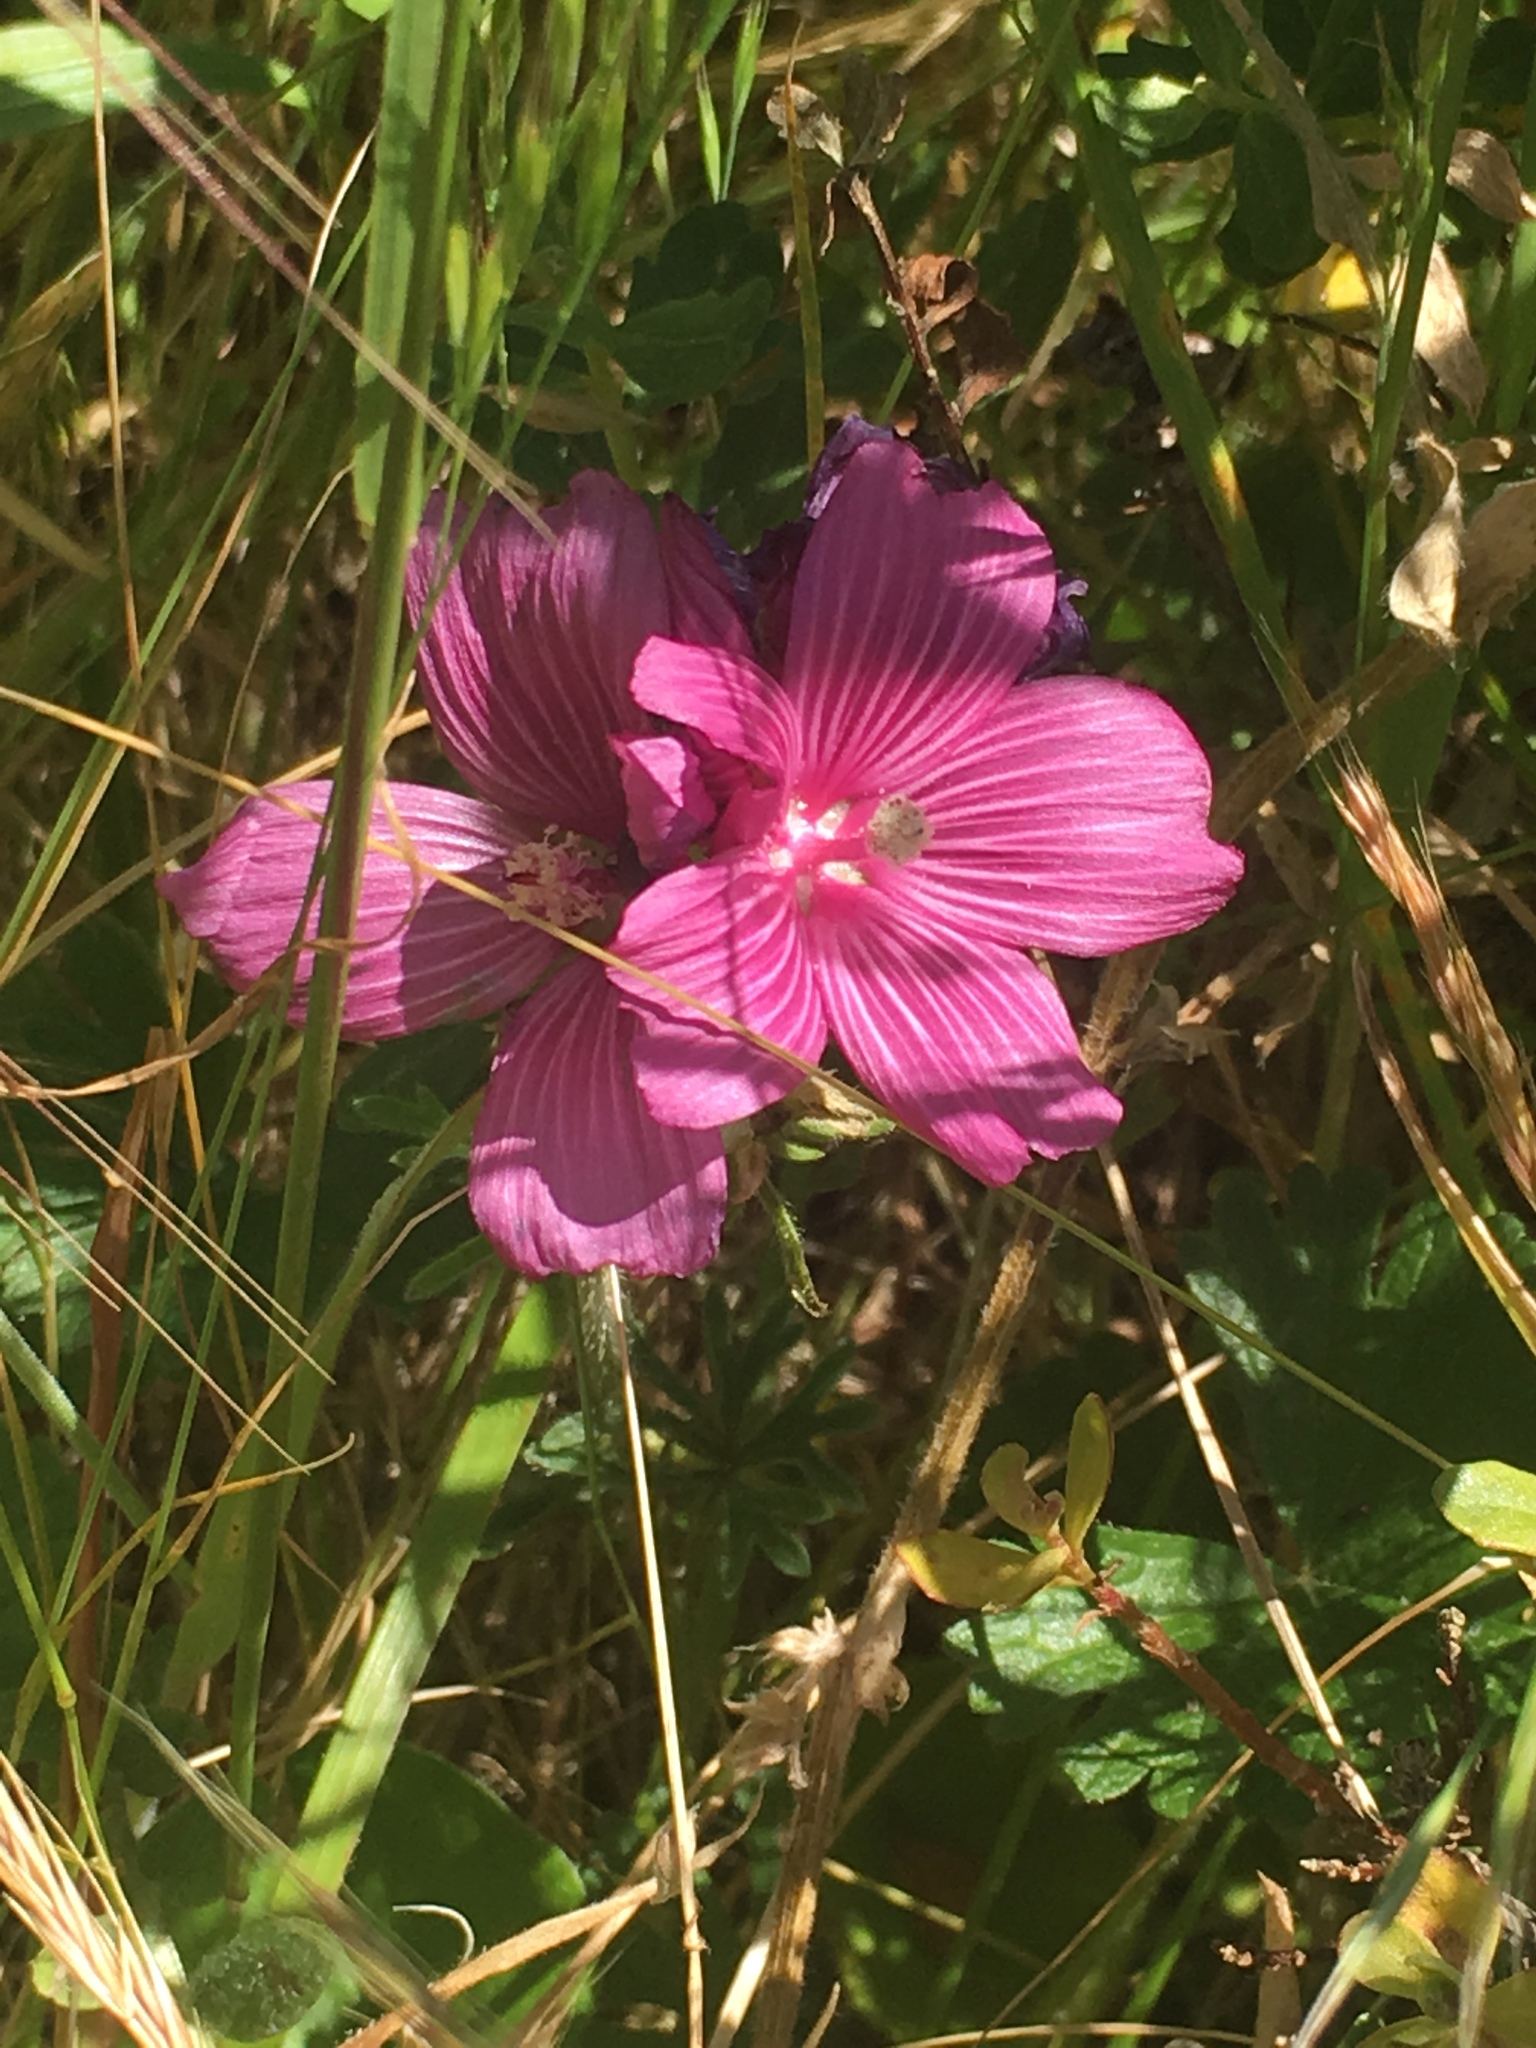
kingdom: Plantae
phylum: Tracheophyta
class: Magnoliopsida
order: Malvales
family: Malvaceae
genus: Sidalcea
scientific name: Sidalcea malviflora
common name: Greek mallow
